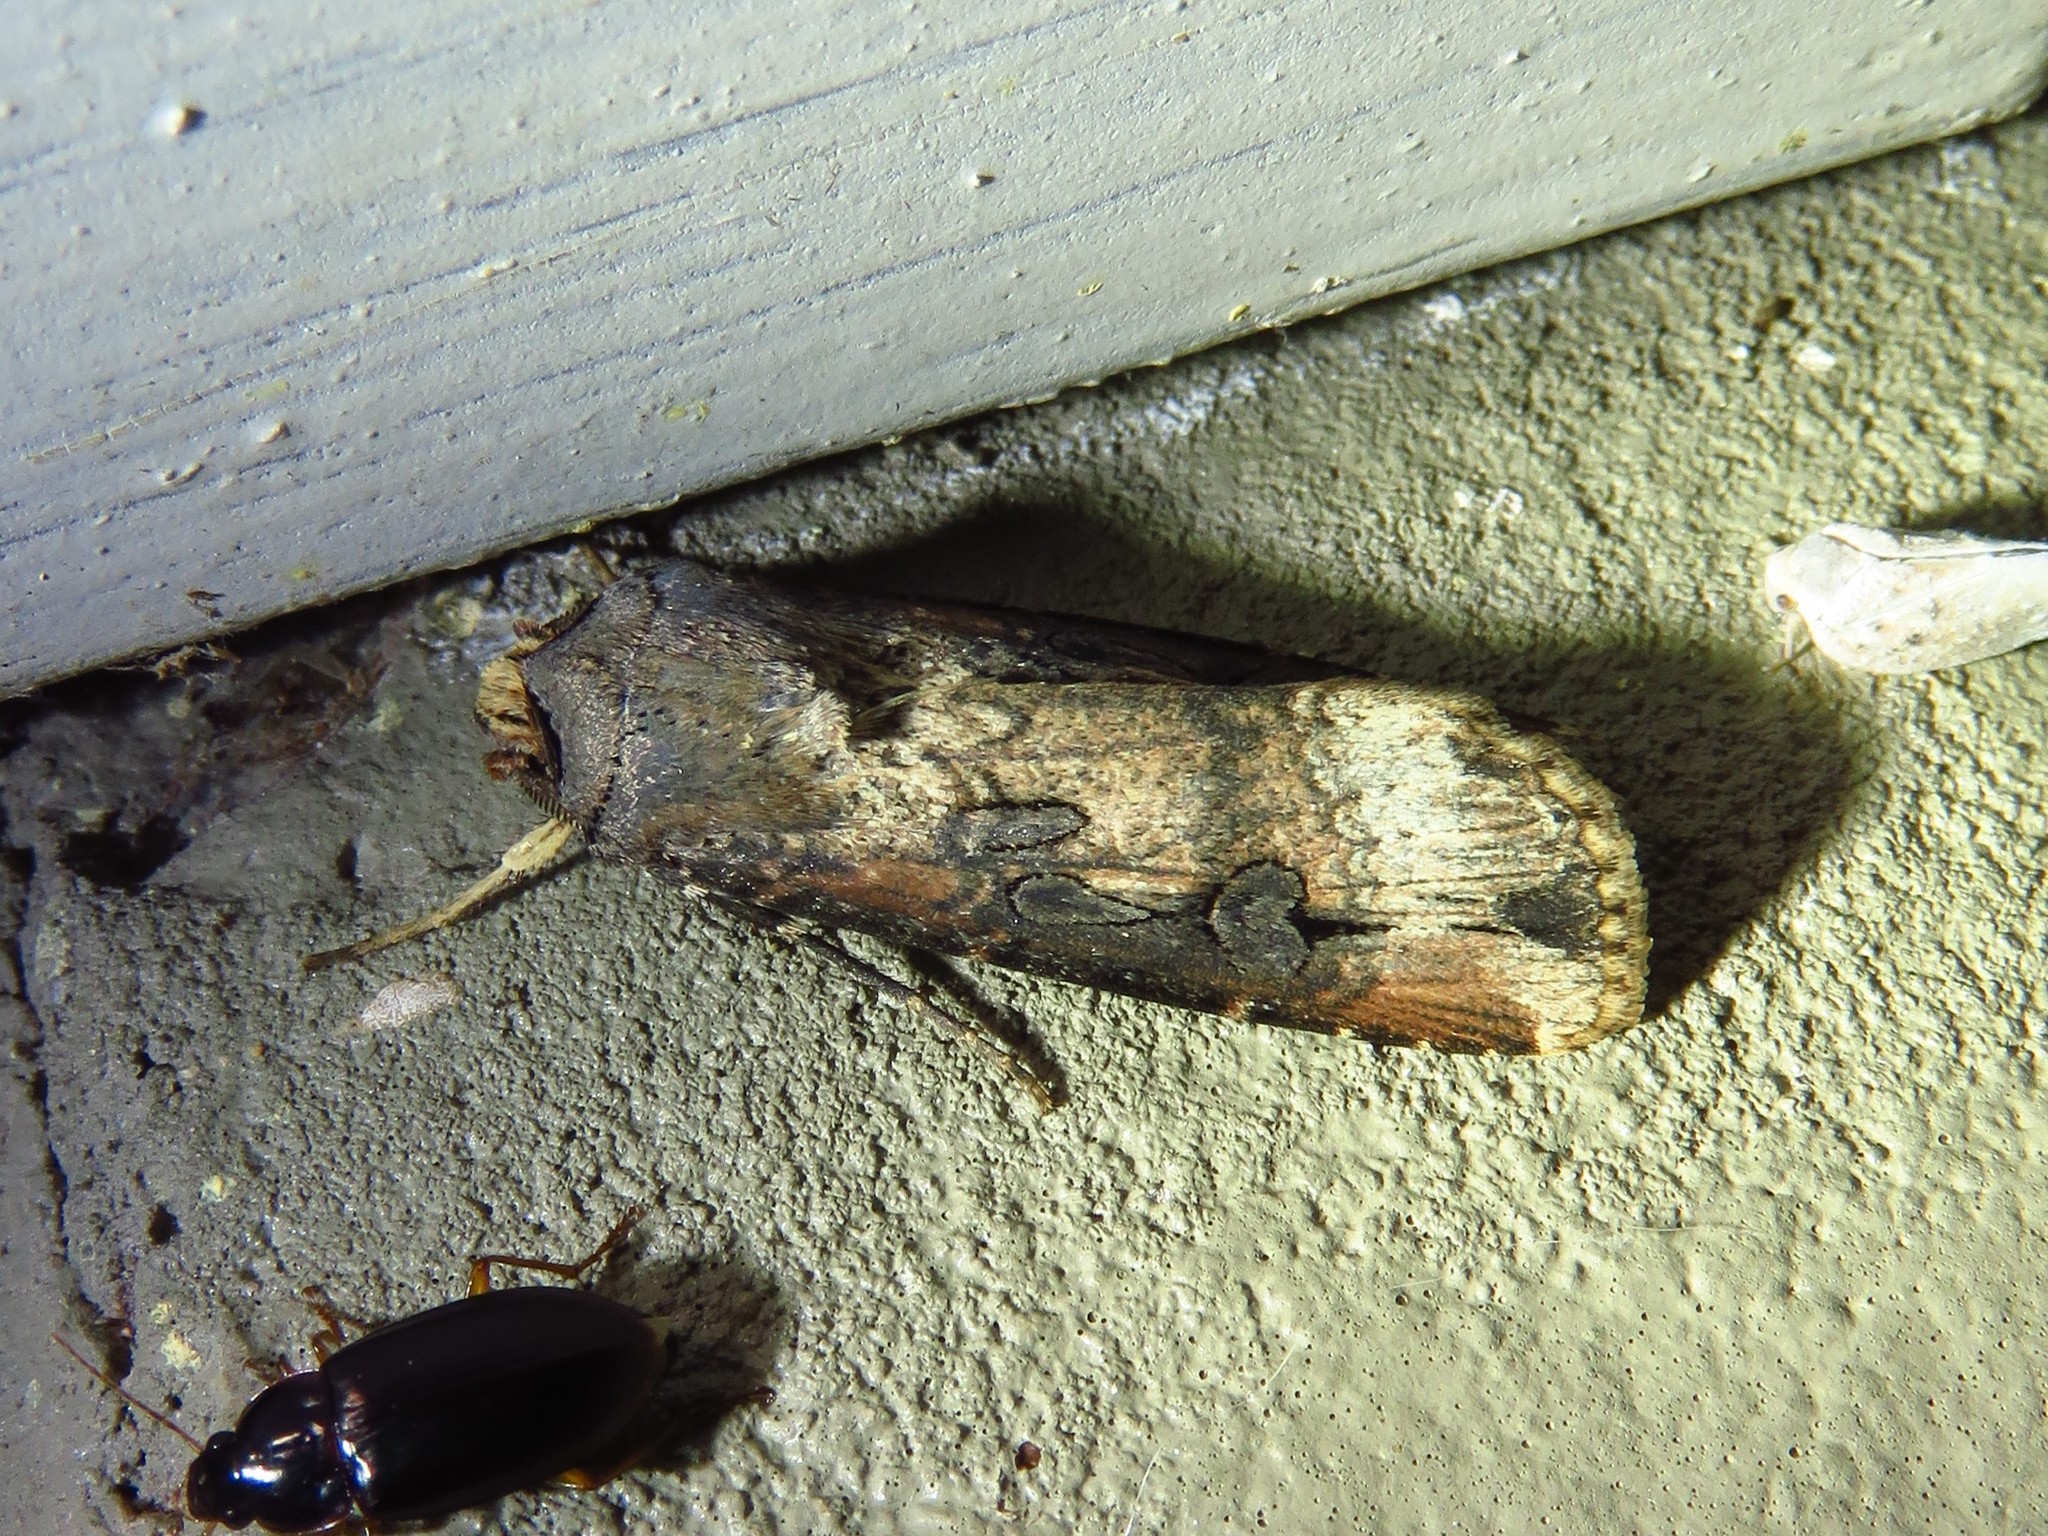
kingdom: Animalia
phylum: Arthropoda
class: Insecta
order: Lepidoptera
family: Noctuidae
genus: Agrotis
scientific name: Agrotis ipsilon
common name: Dark sword-grass
